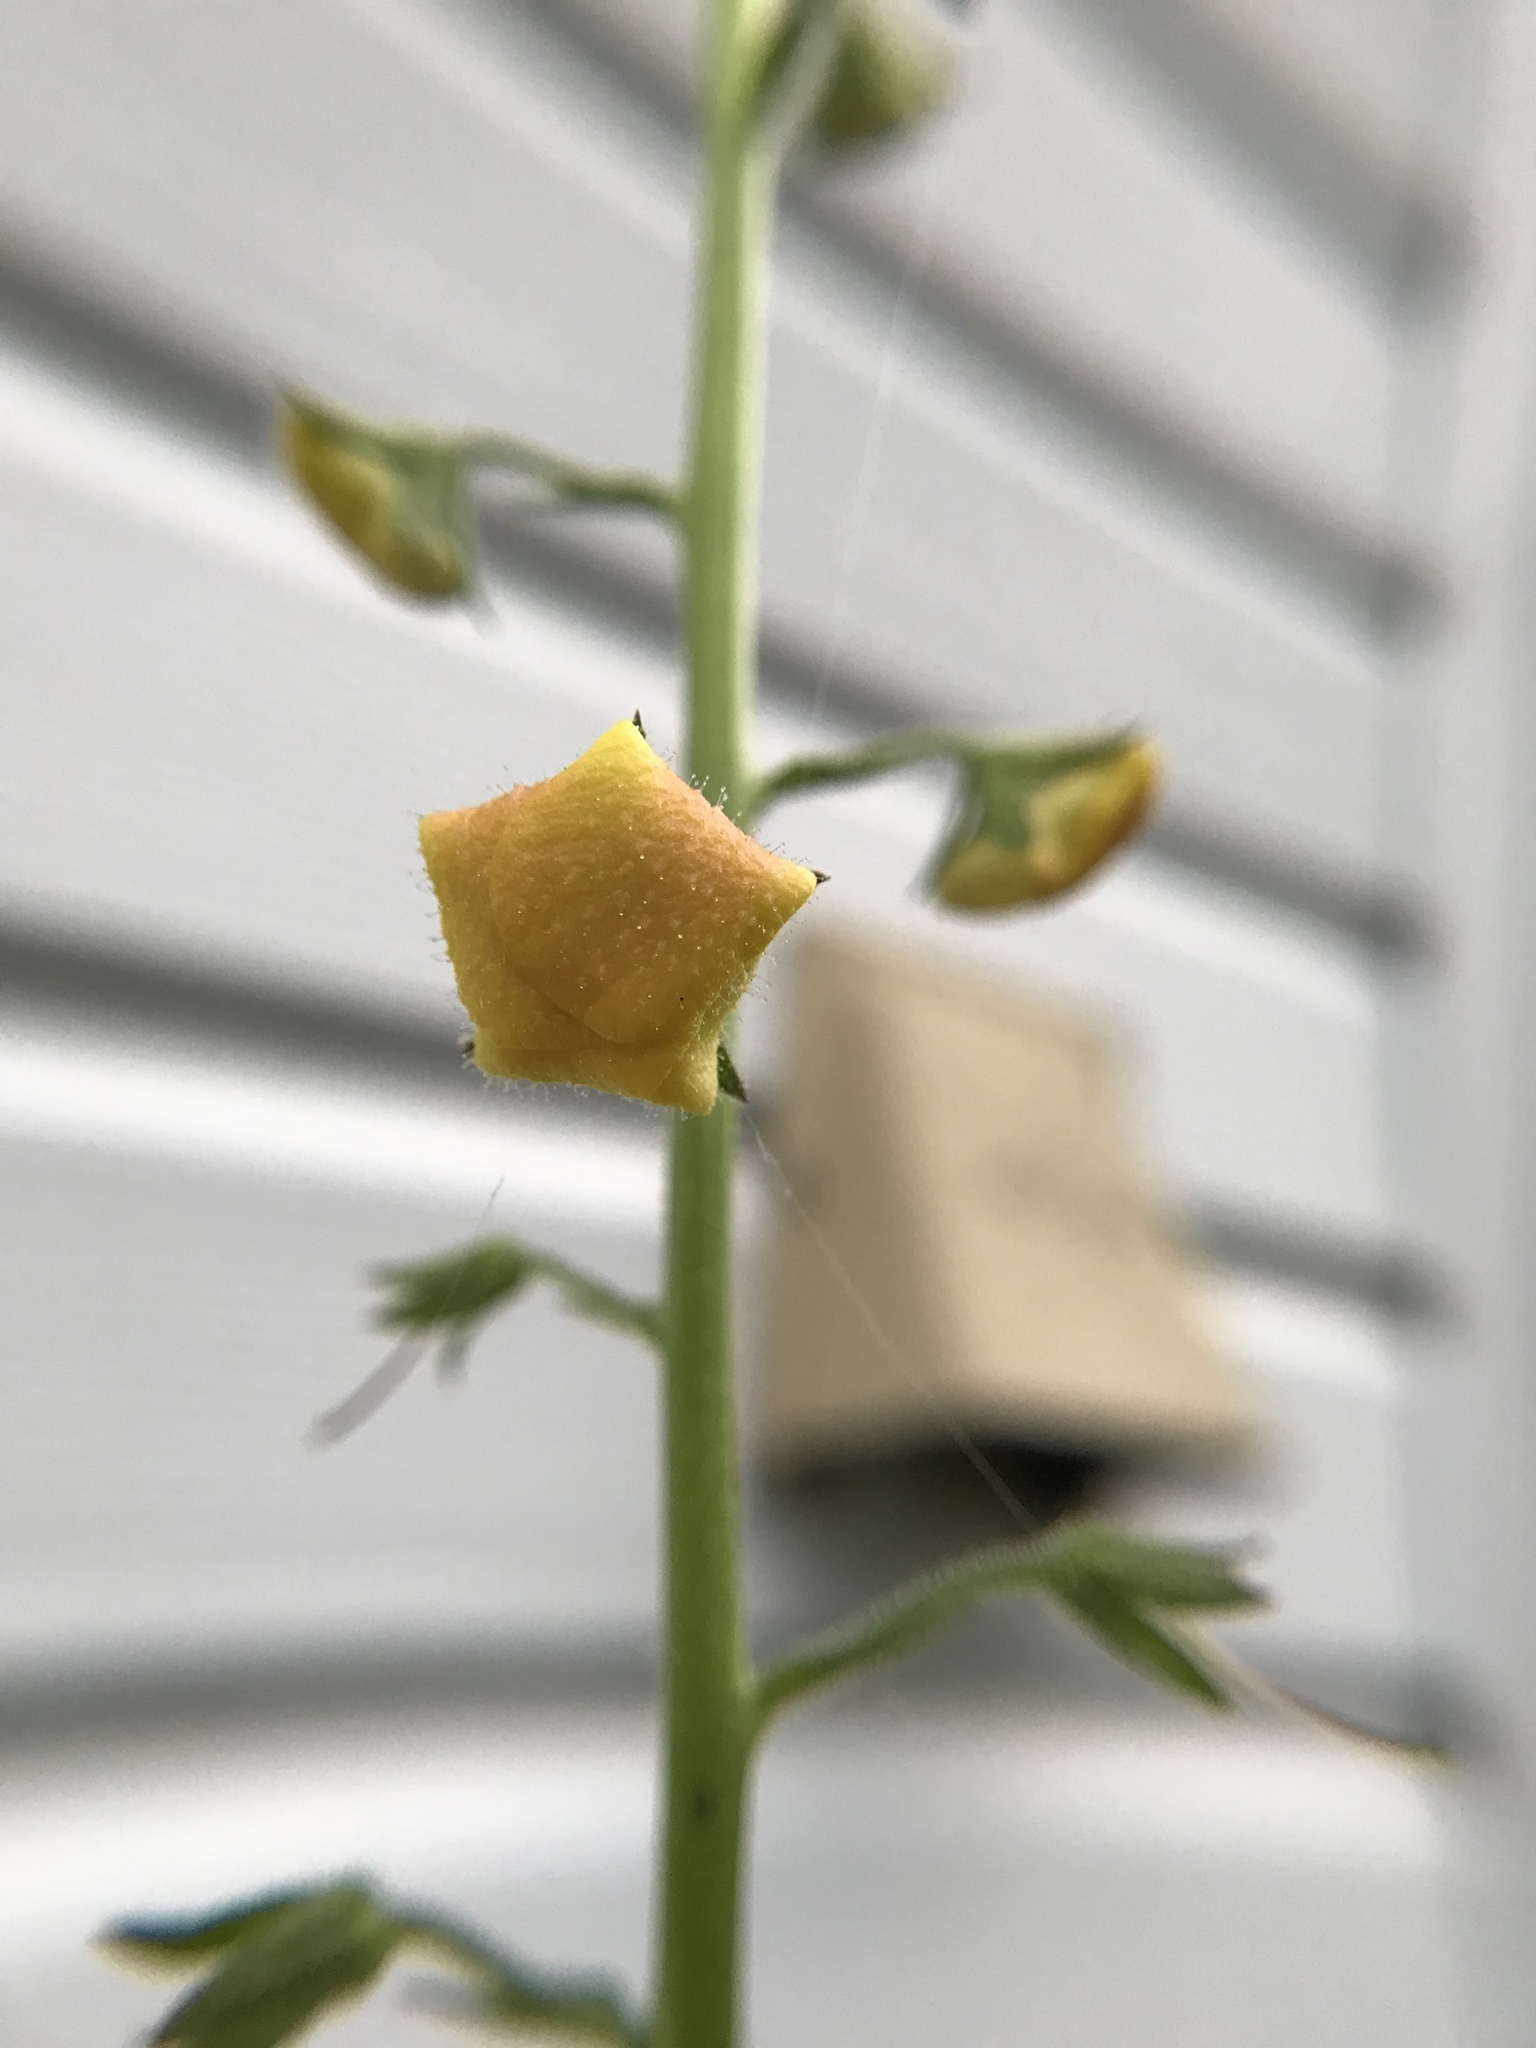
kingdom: Plantae
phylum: Tracheophyta
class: Magnoliopsida
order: Lamiales
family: Scrophulariaceae
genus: Verbascum
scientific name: Verbascum blattaria
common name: Moth mullein
